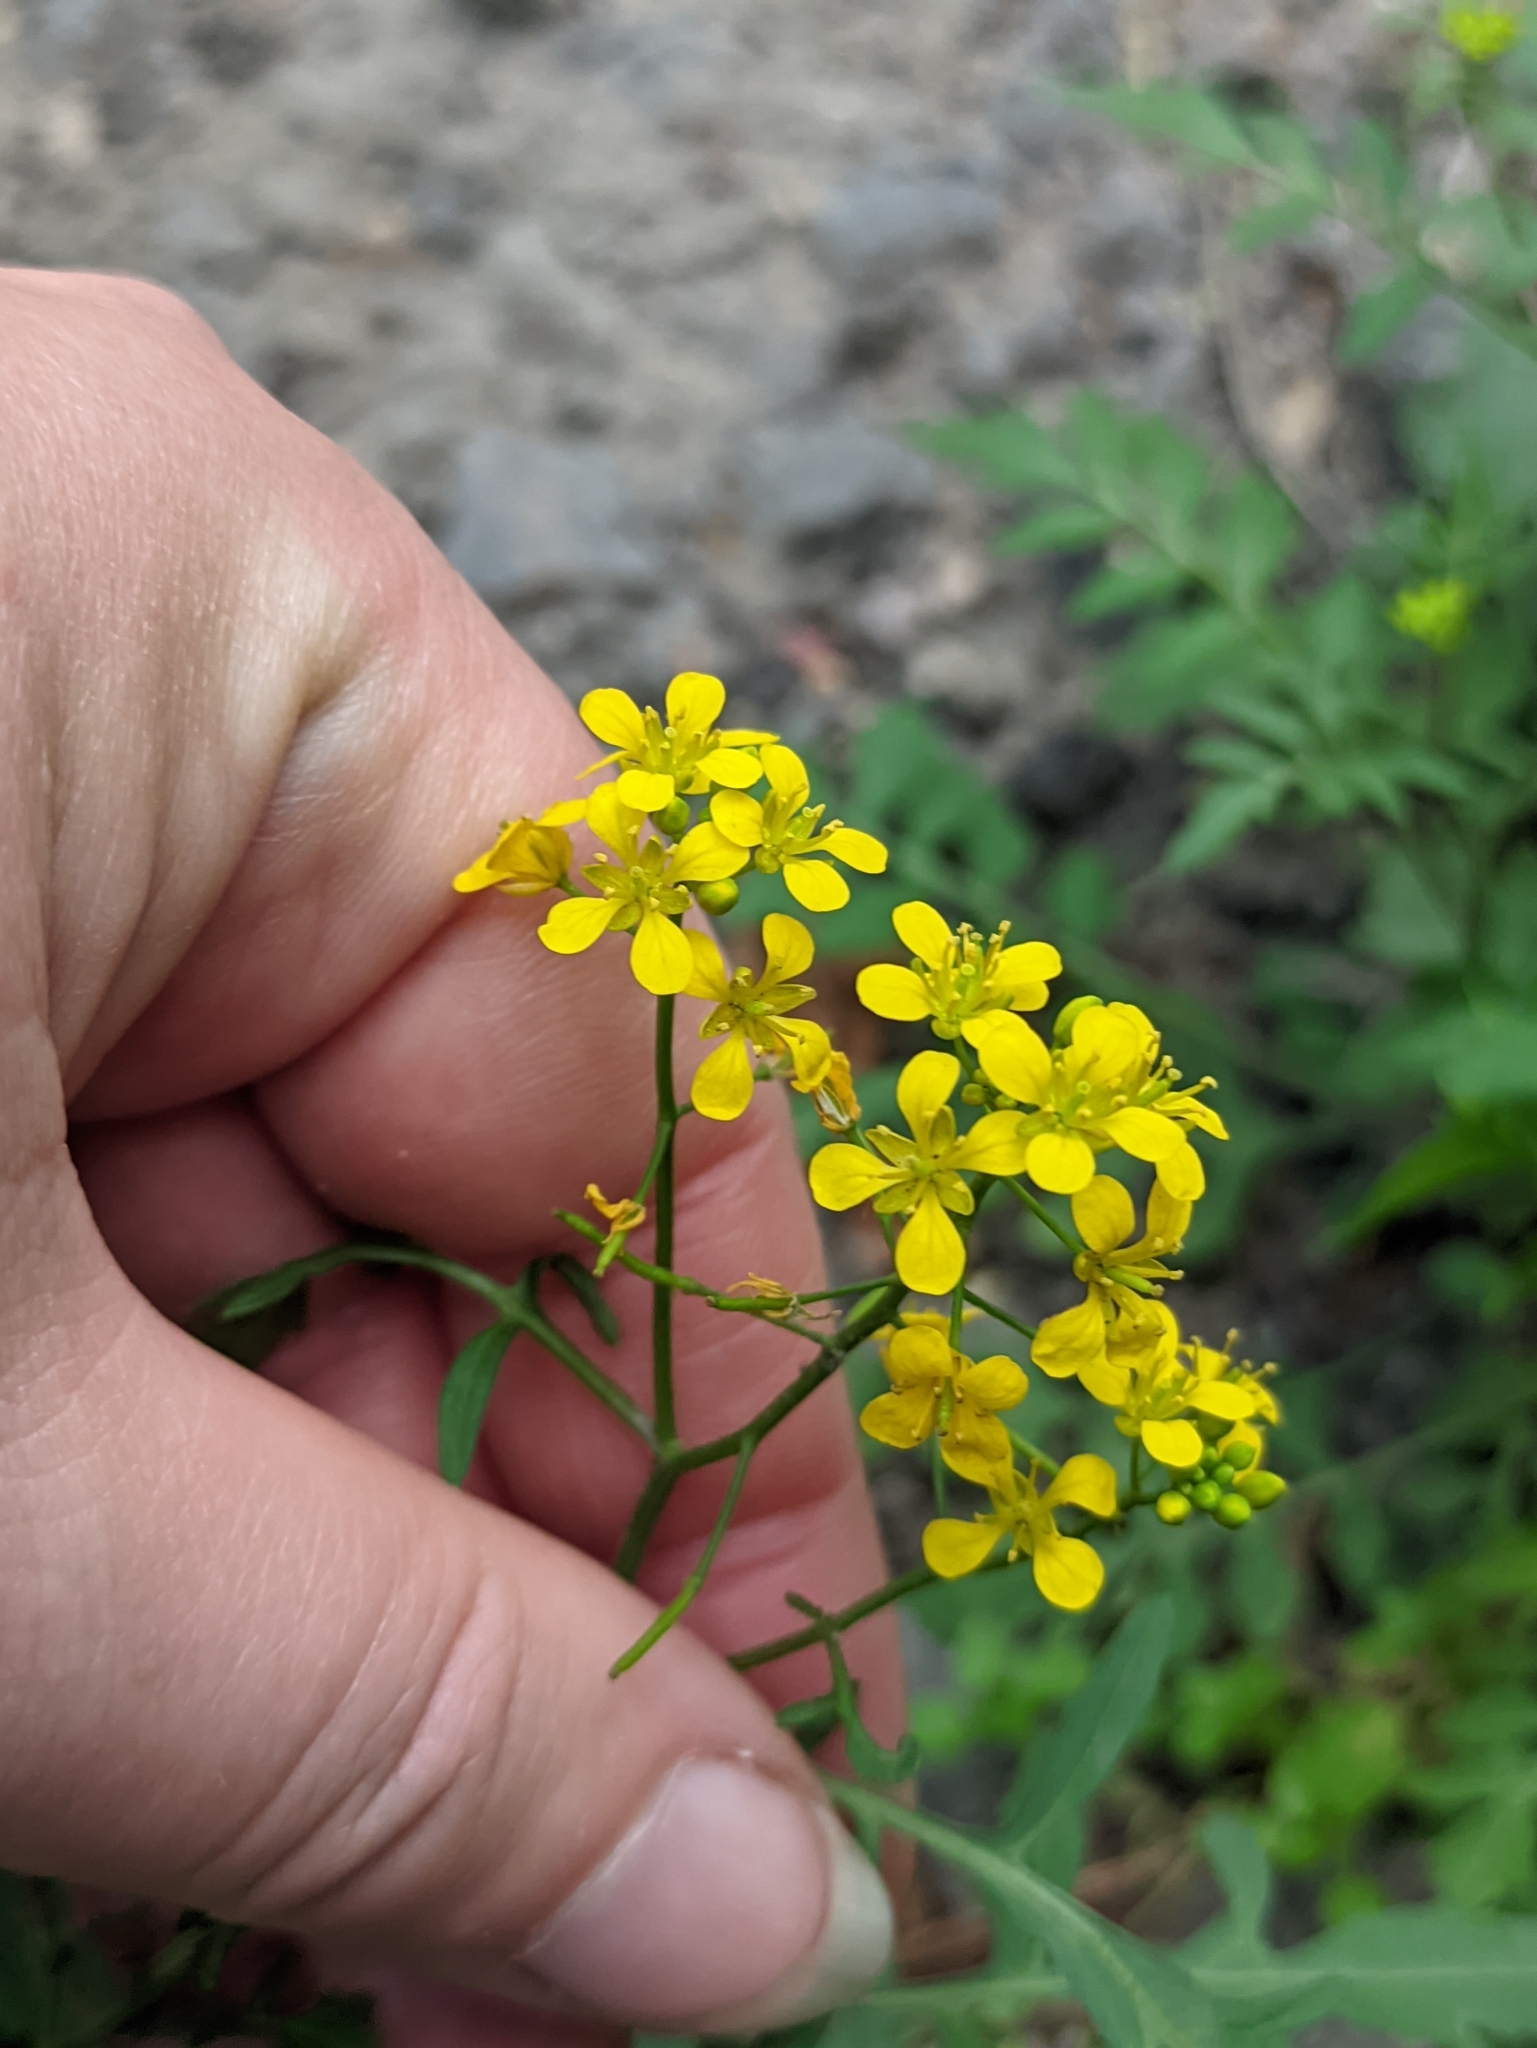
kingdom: Plantae
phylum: Tracheophyta
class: Magnoliopsida
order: Brassicales
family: Brassicaceae
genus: Rorippa
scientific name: Rorippa sylvestris
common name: Creeping yellowcress
